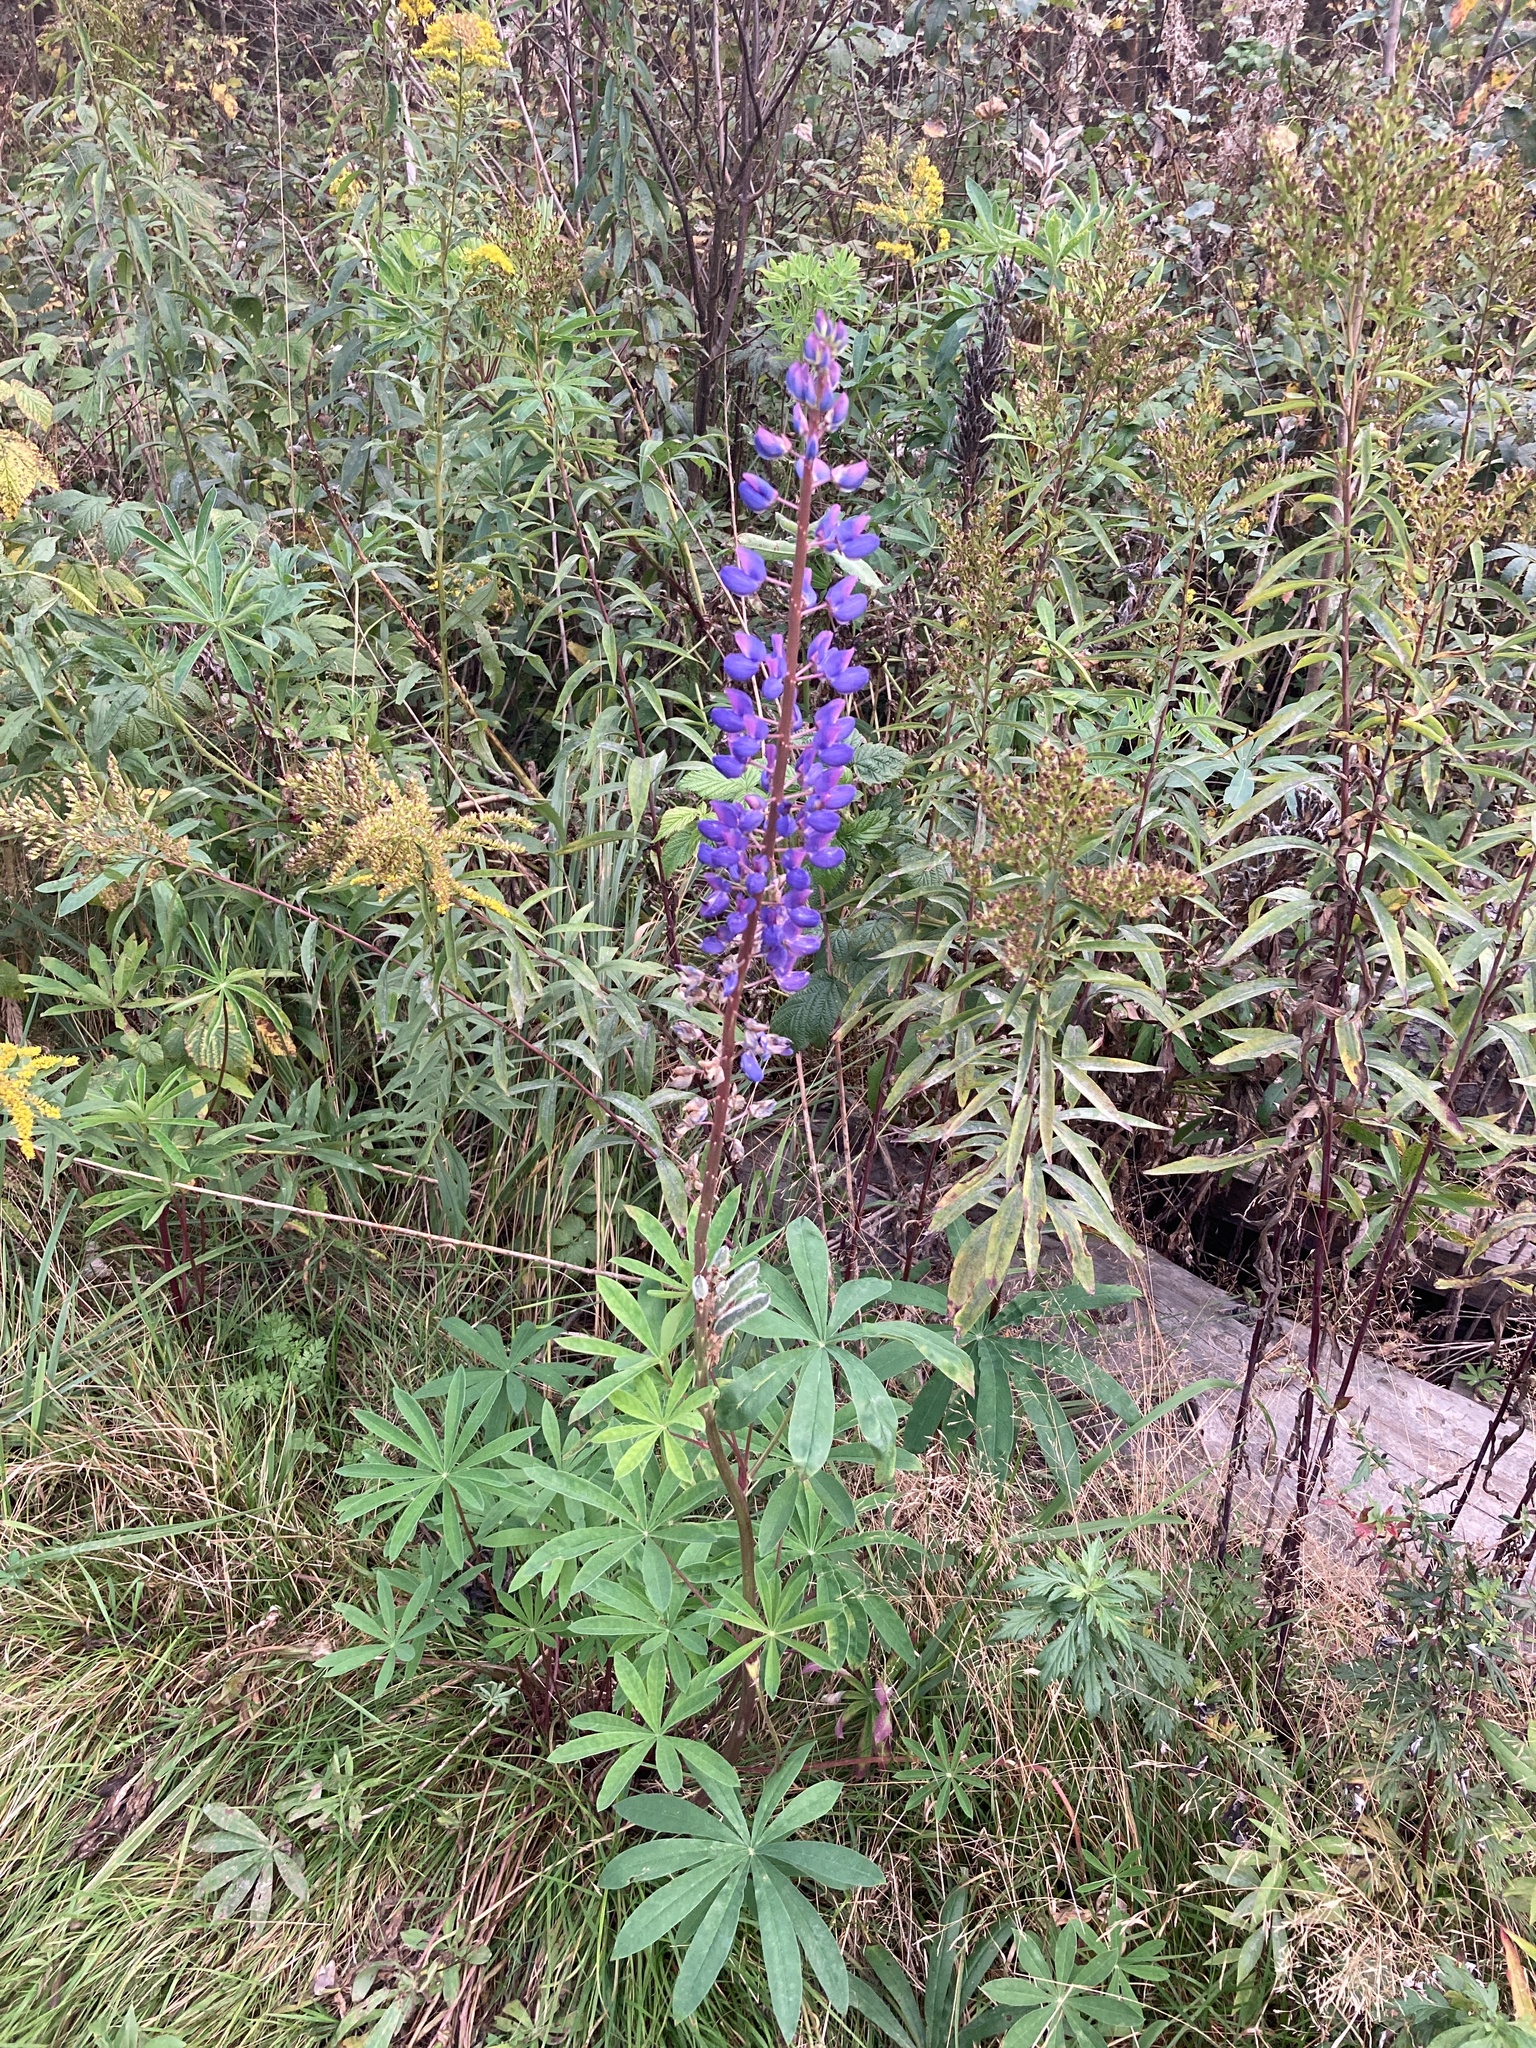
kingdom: Plantae
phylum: Tracheophyta
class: Magnoliopsida
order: Fabales
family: Fabaceae
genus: Lupinus
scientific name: Lupinus polyphyllus
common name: Garden lupin
